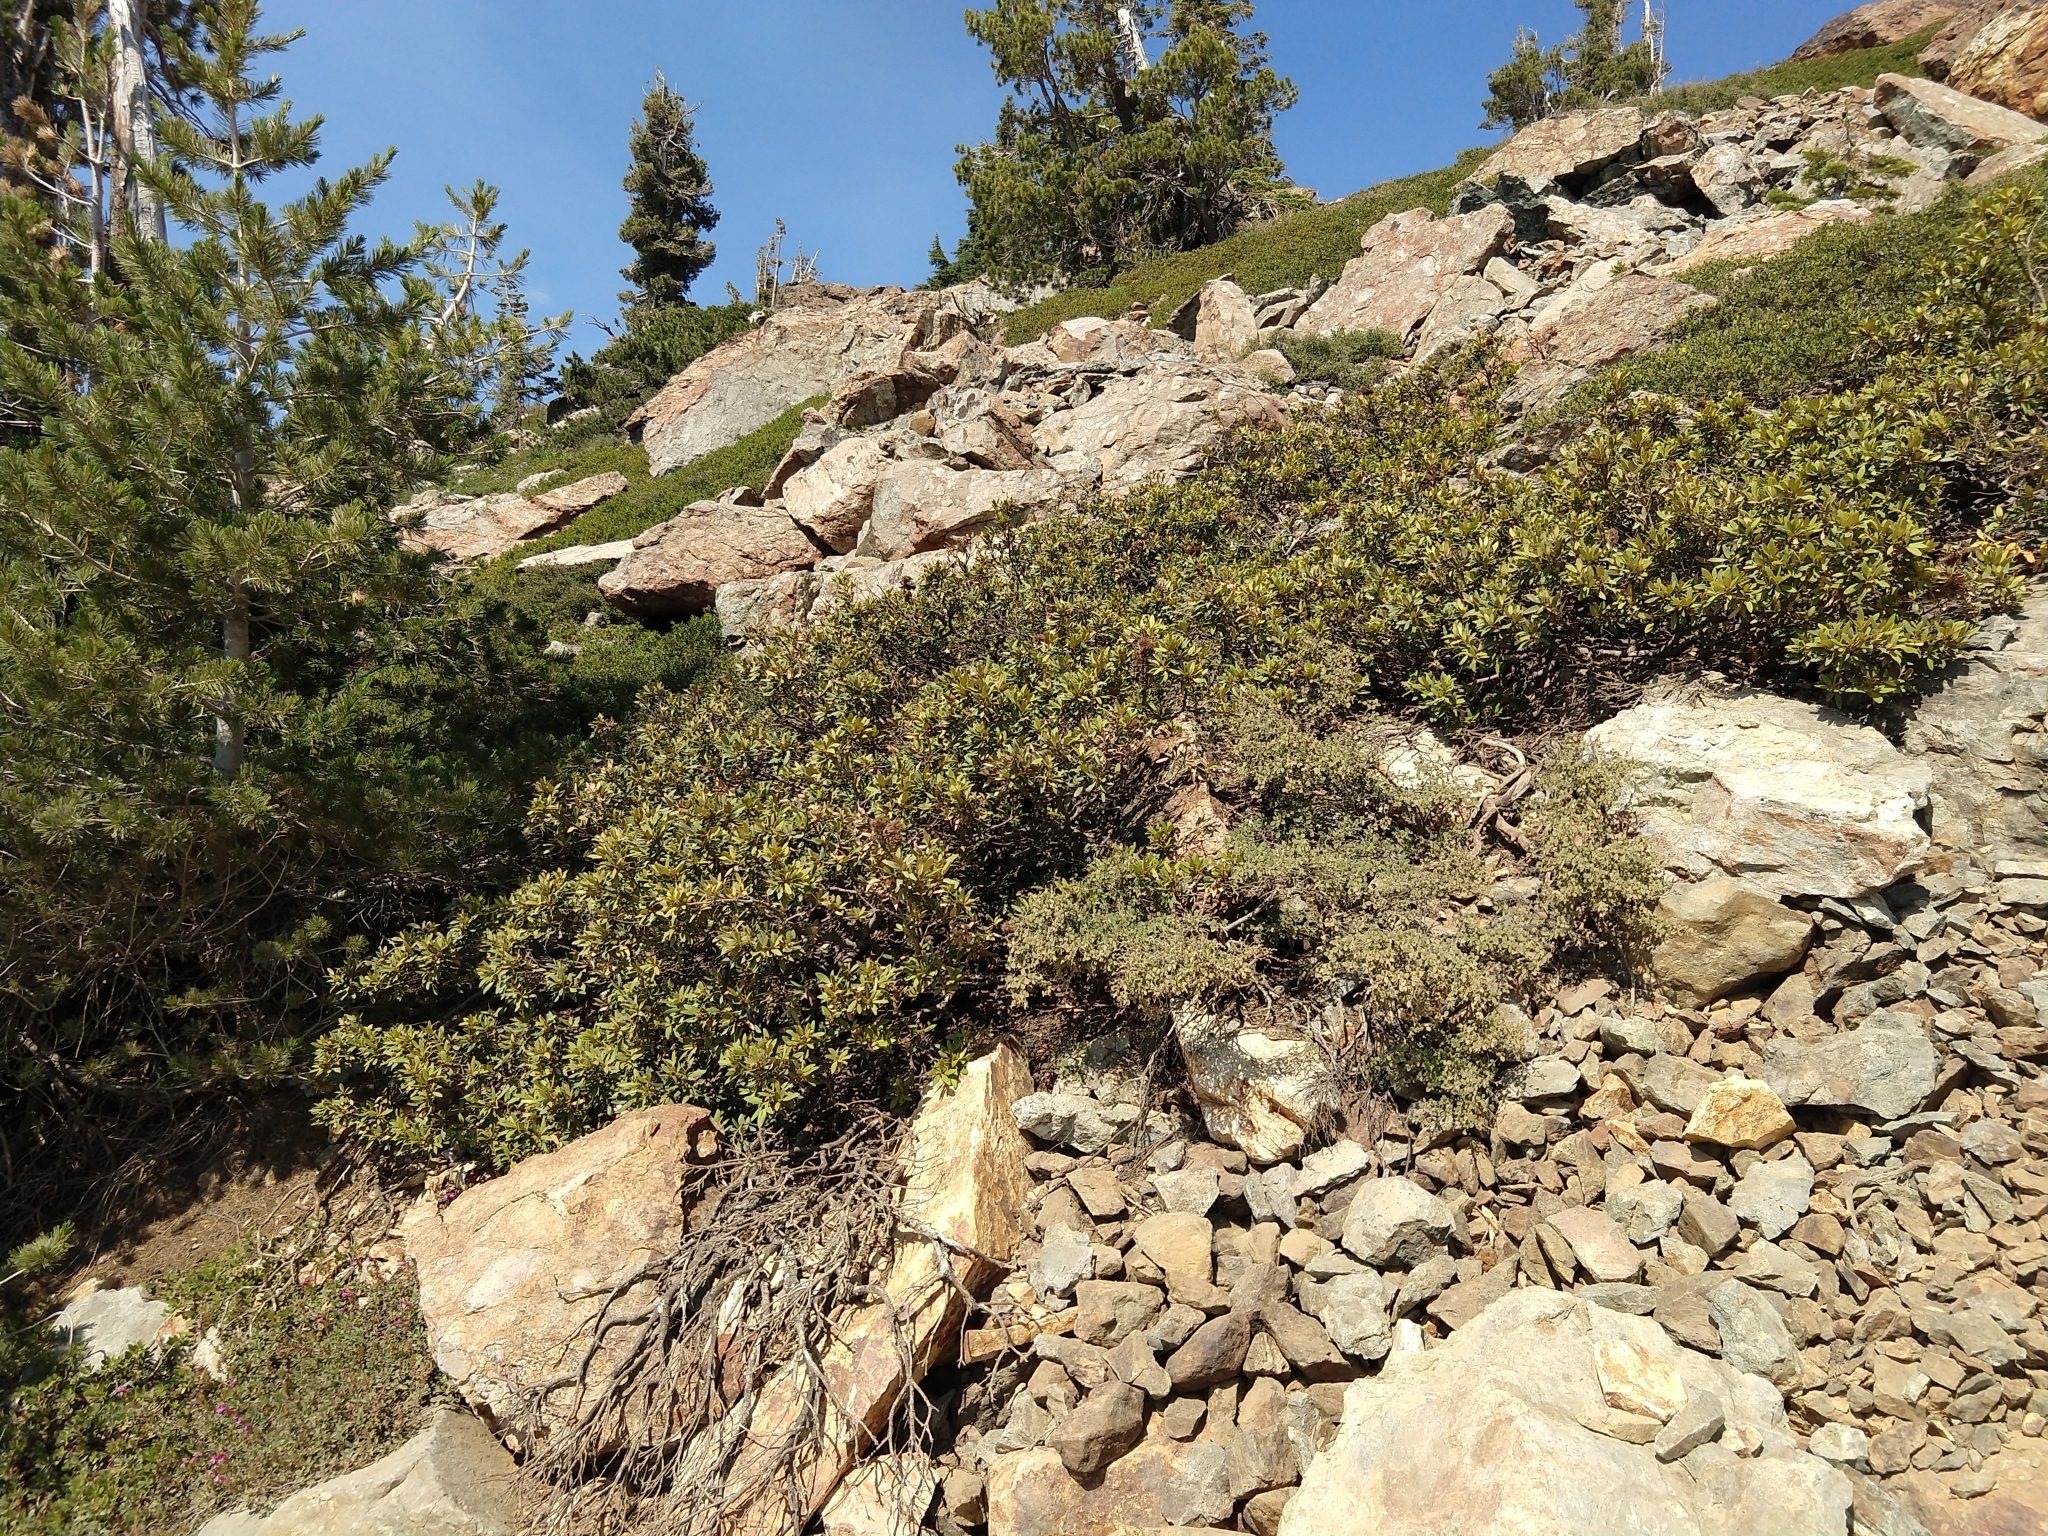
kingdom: Plantae
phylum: Tracheophyta
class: Magnoliopsida
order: Fagales
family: Fagaceae
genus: Chrysolepis
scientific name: Chrysolepis sempervirens
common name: Bush chinquapin
